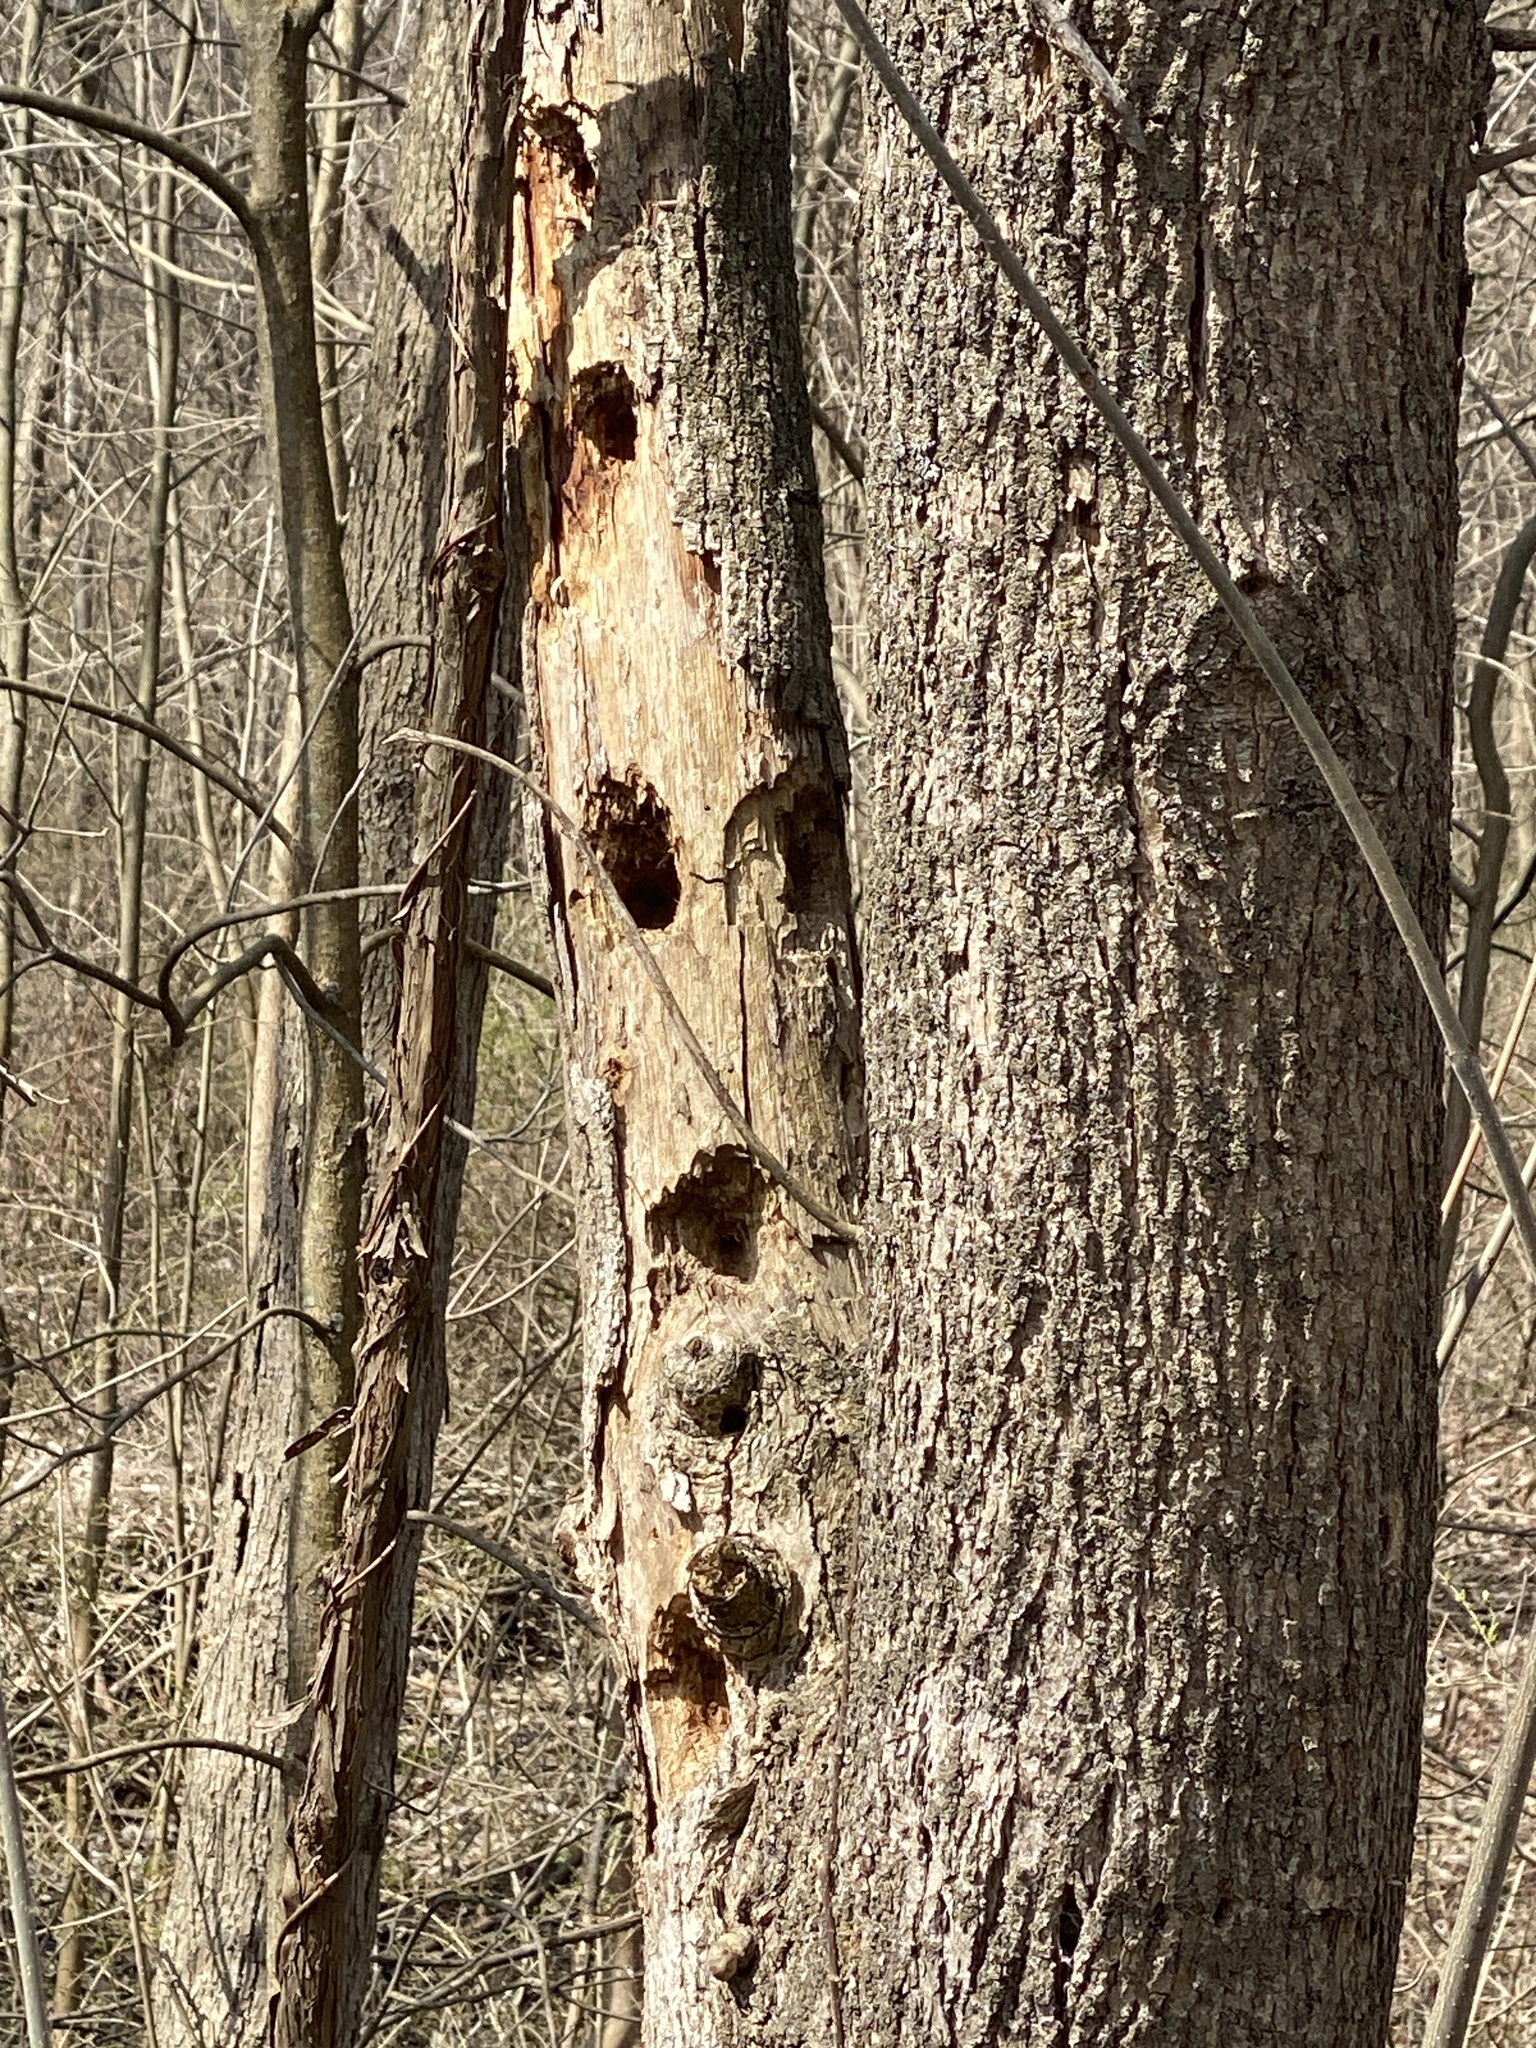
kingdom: Animalia
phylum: Chordata
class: Aves
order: Piciformes
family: Picidae
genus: Dryocopus
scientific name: Dryocopus pileatus
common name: Pileated woodpecker
